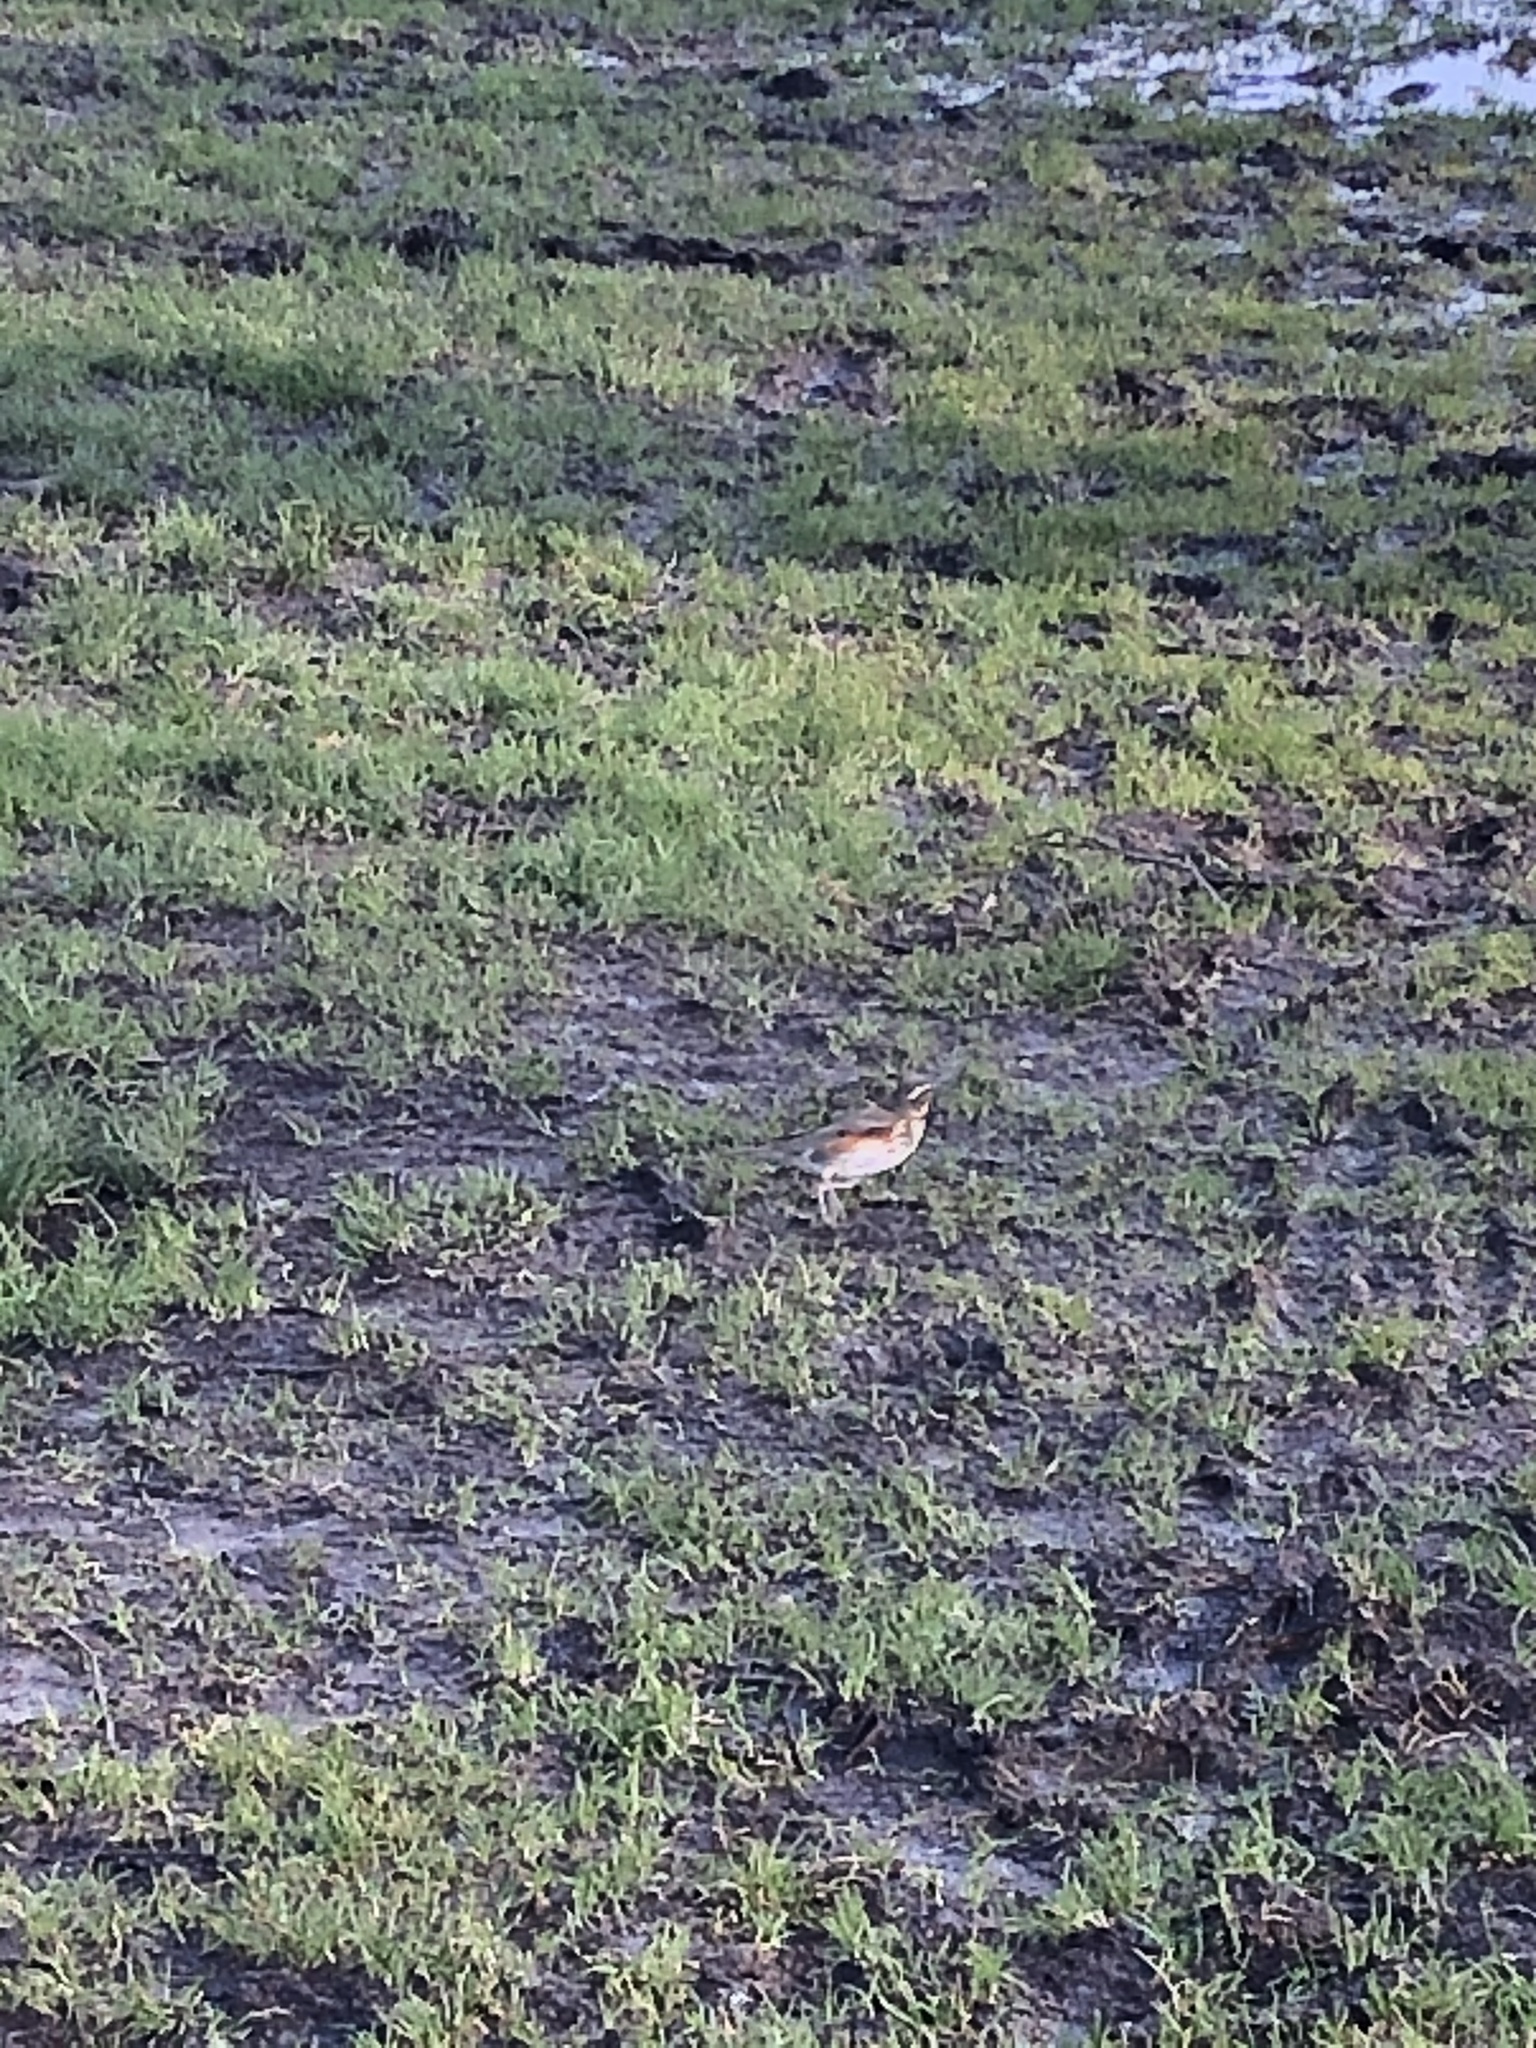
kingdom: Animalia
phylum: Chordata
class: Aves
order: Passeriformes
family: Turdidae
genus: Turdus
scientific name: Turdus iliacus
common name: Redwing
